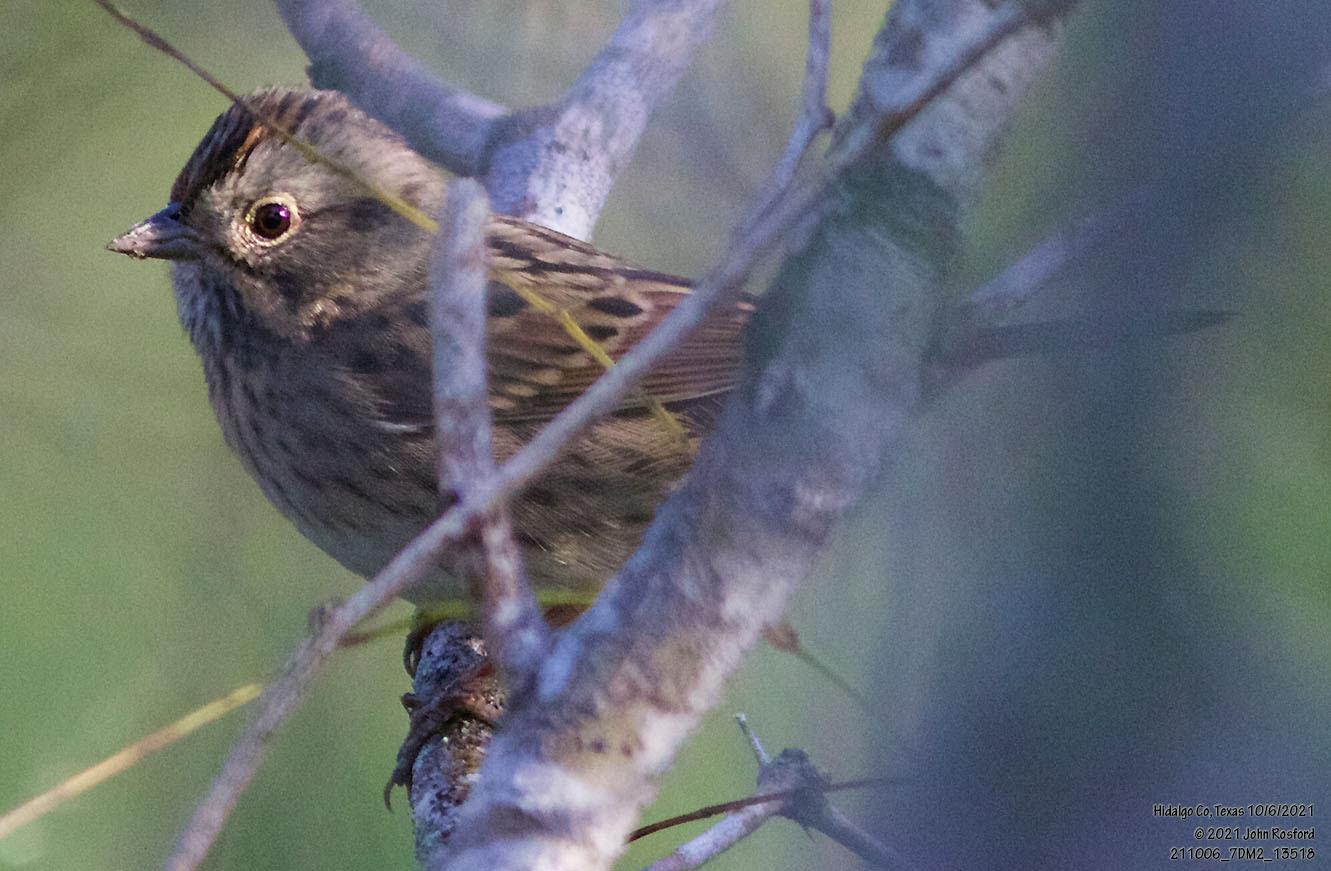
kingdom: Animalia
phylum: Chordata
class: Aves
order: Passeriformes
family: Passerellidae
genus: Melospiza
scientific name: Melospiza lincolnii
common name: Lincoln's sparrow
